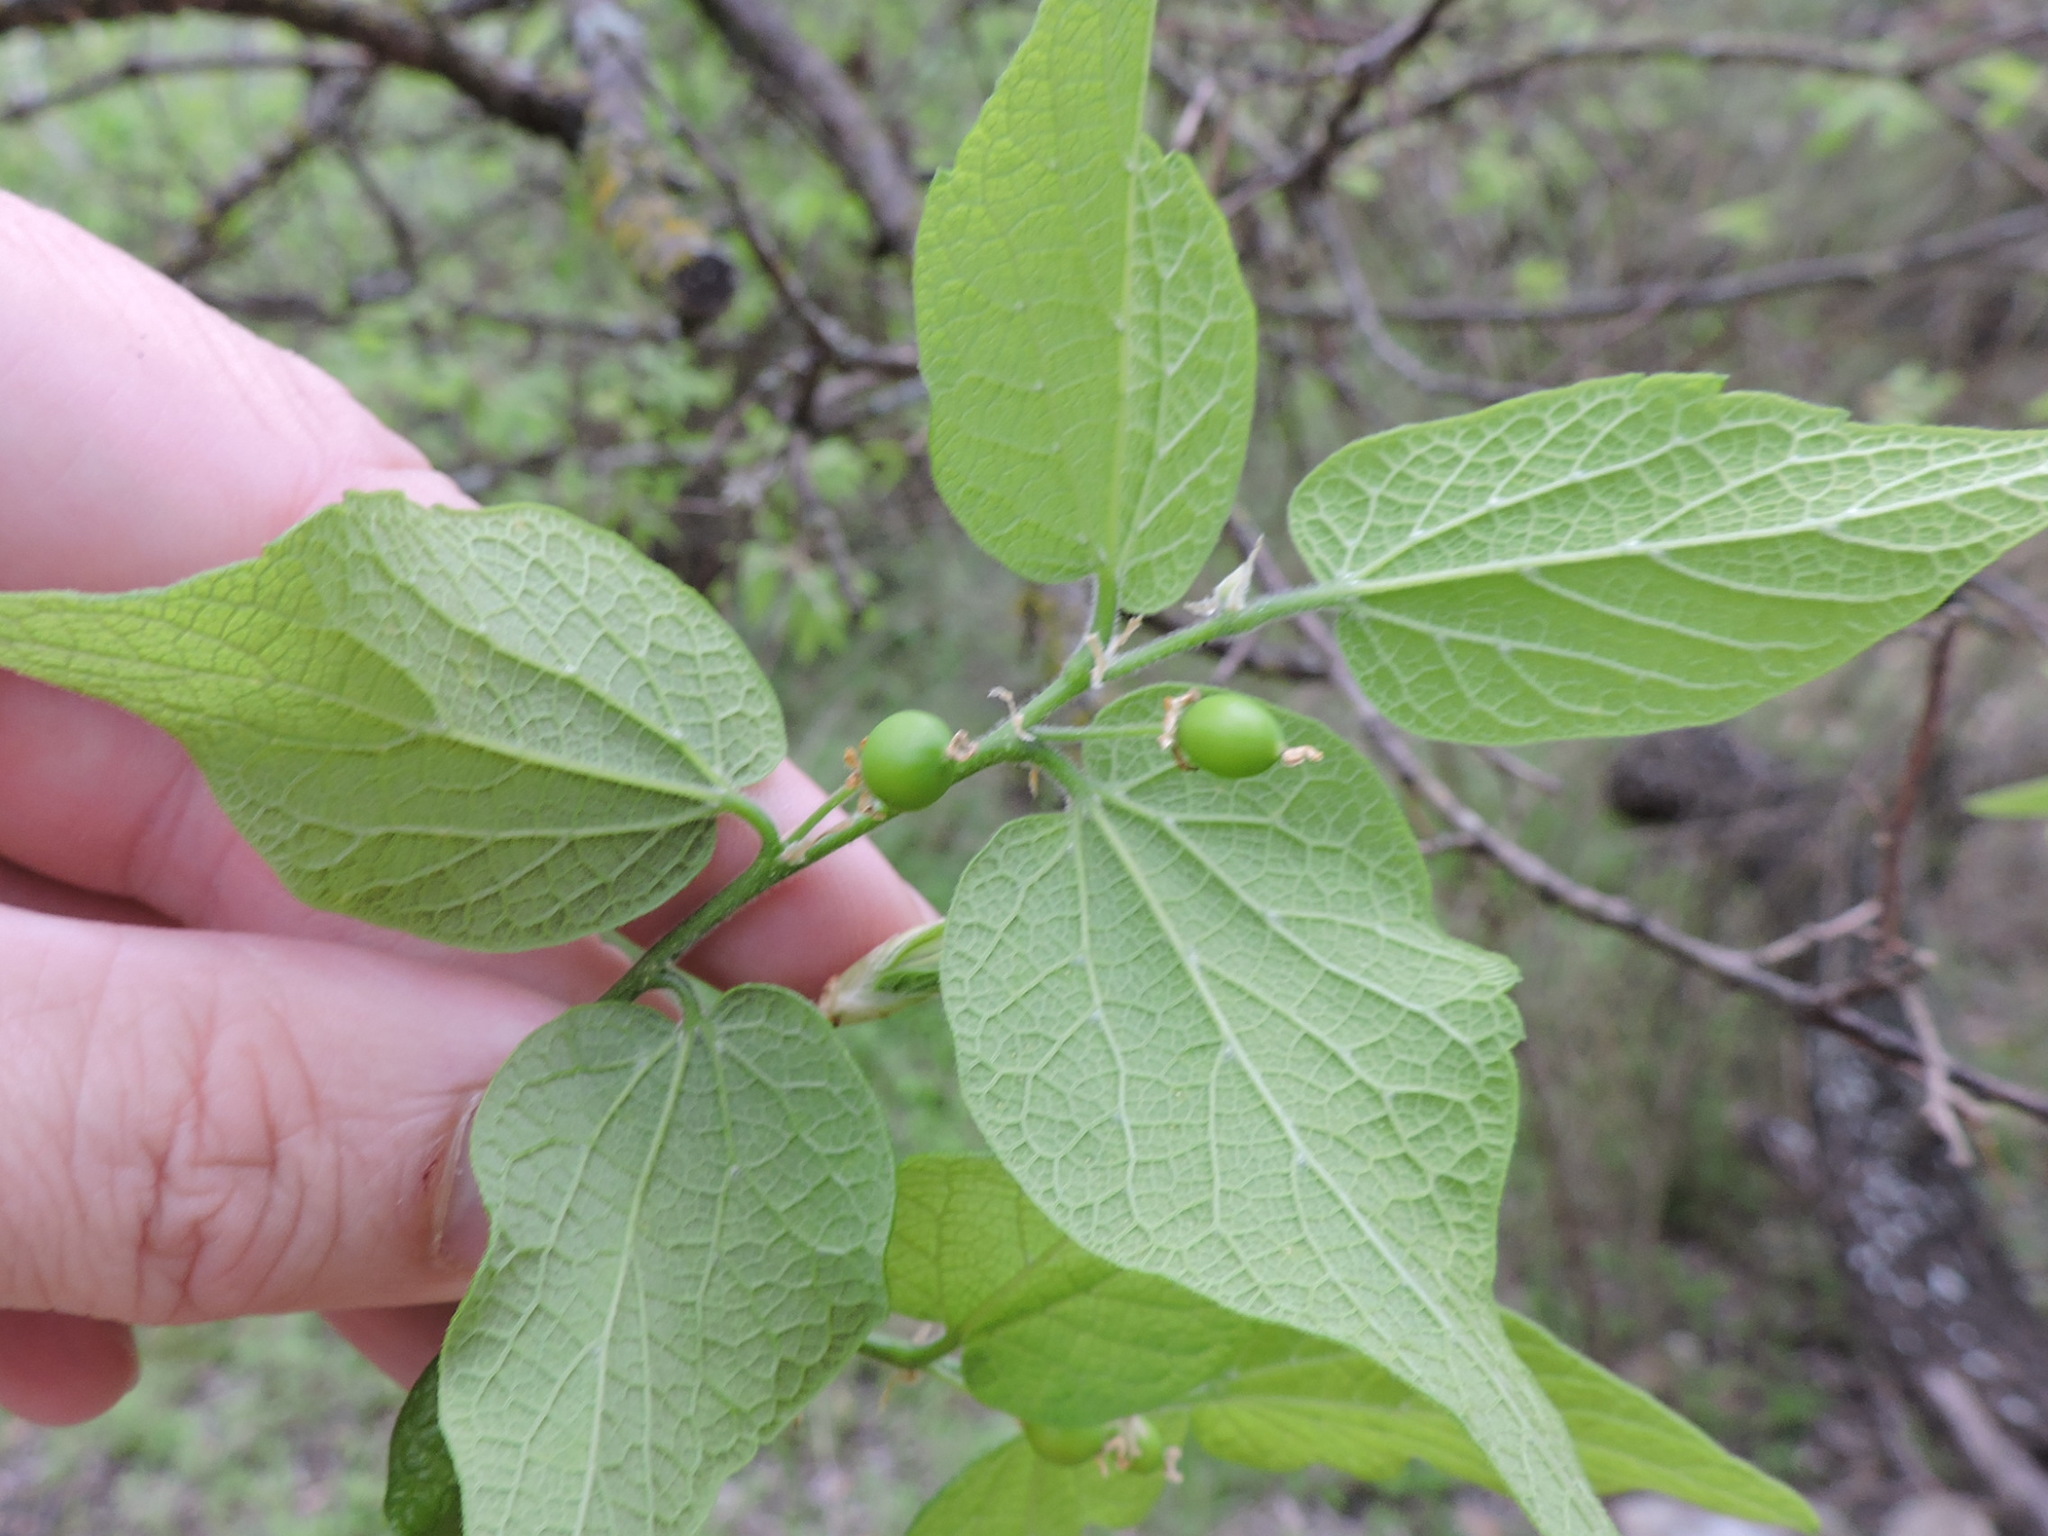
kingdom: Plantae
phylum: Tracheophyta
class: Magnoliopsida
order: Rosales
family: Cannabaceae
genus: Celtis
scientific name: Celtis laevigata
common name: Sugarberry
